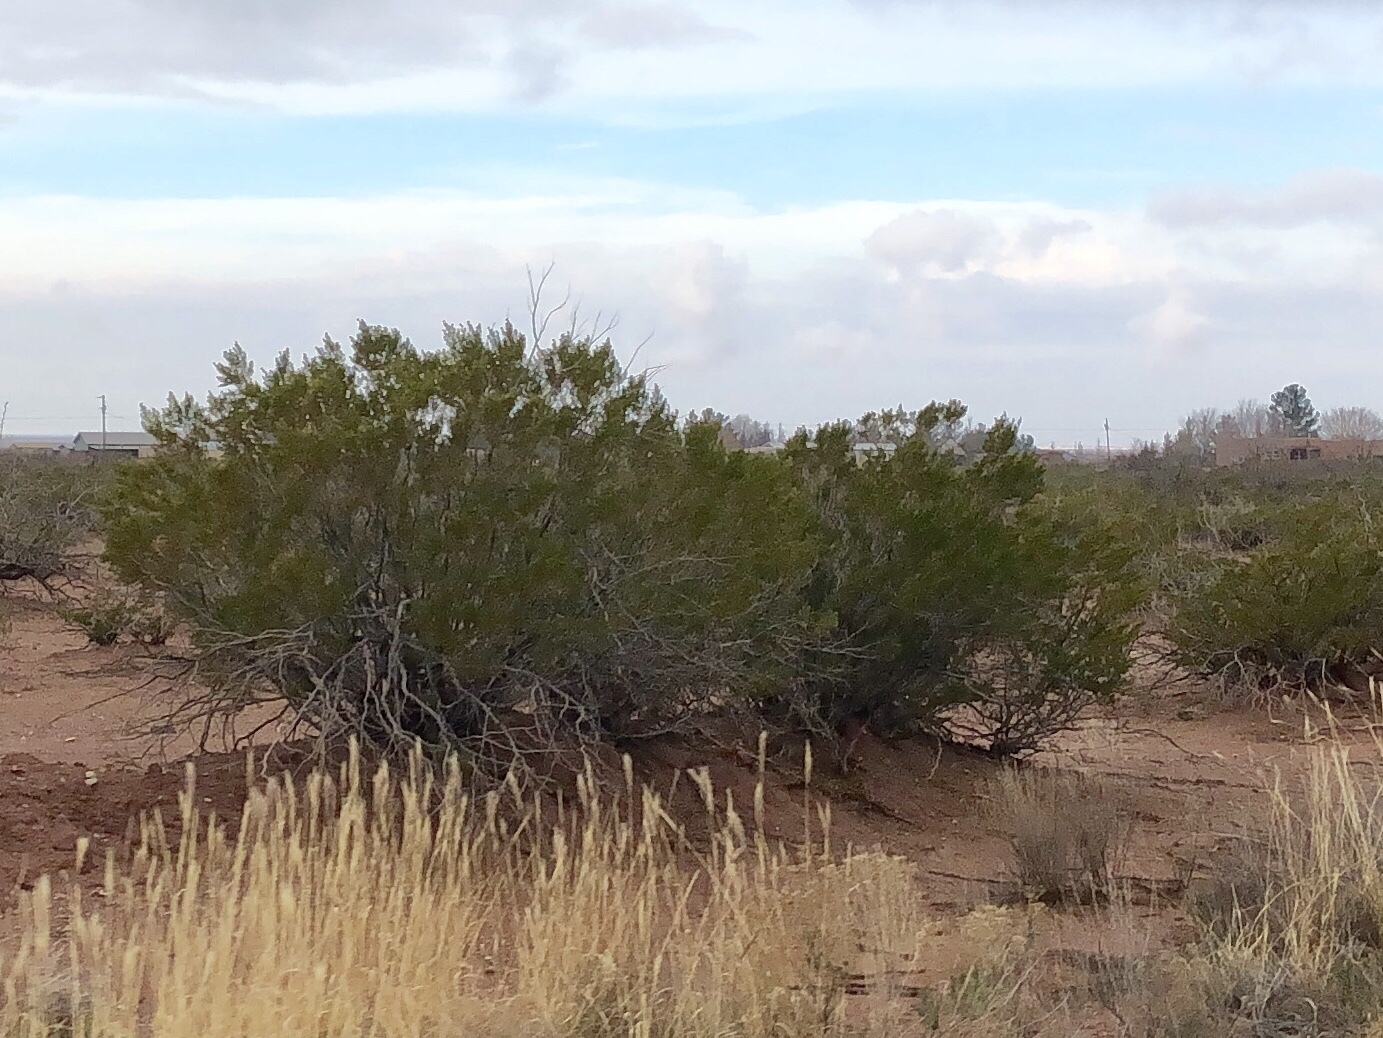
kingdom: Plantae
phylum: Tracheophyta
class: Magnoliopsida
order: Zygophyllales
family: Zygophyllaceae
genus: Larrea
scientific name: Larrea tridentata
